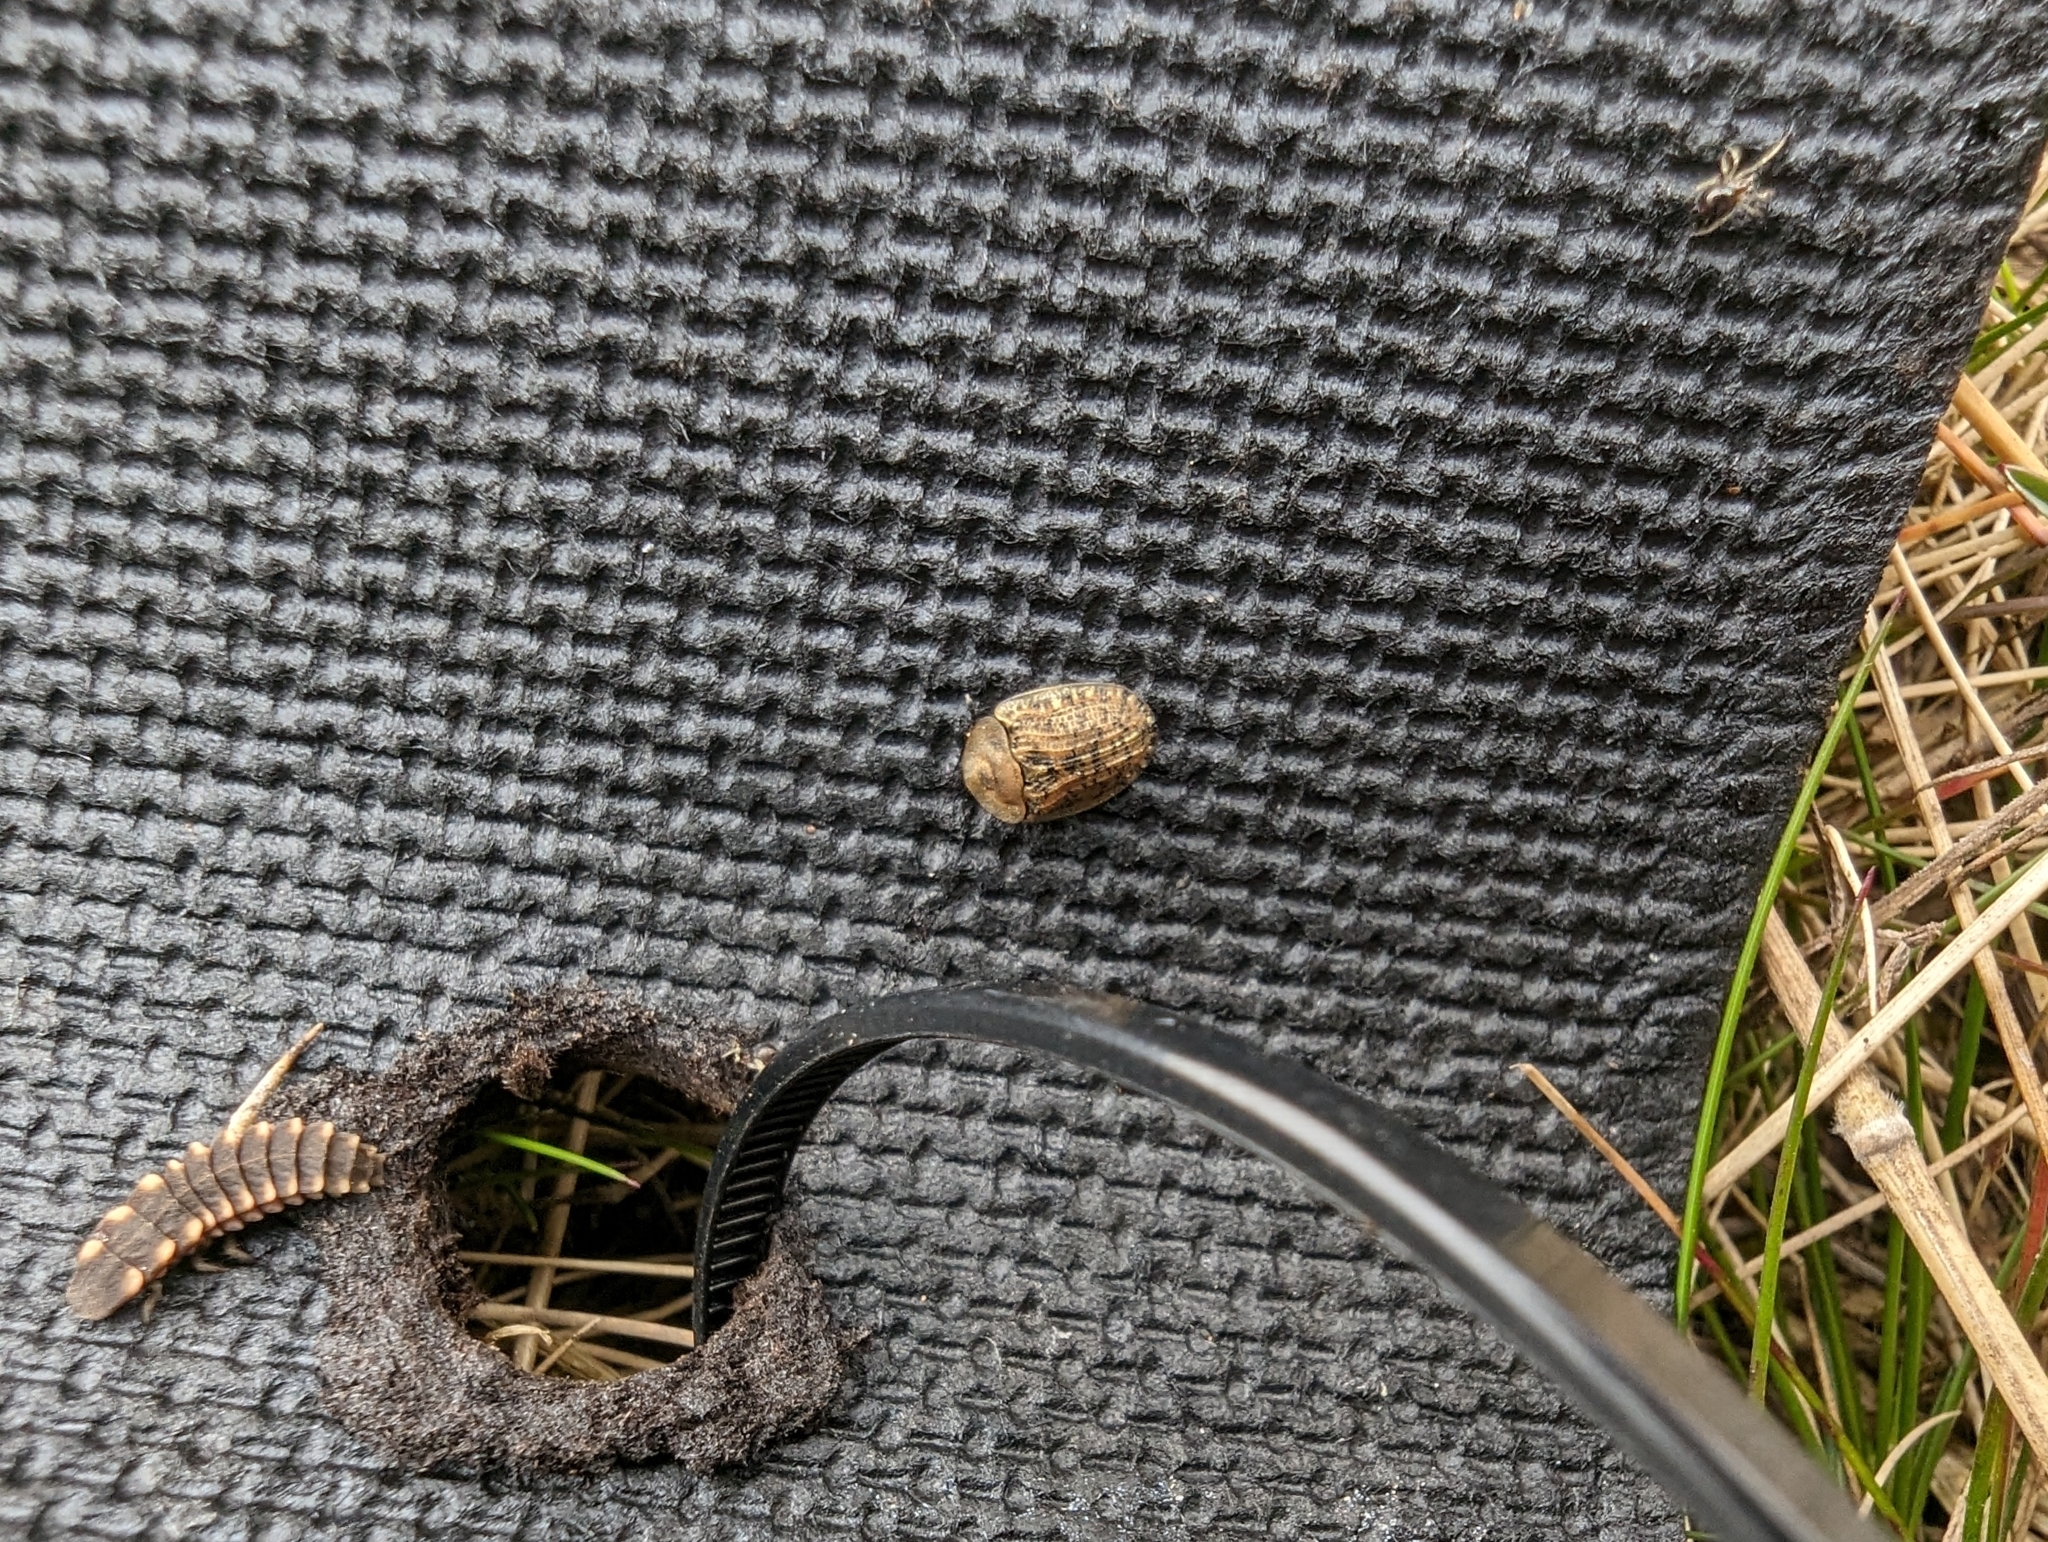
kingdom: Animalia
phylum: Arthropoda
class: Insecta
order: Coleoptera
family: Lampyridae
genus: Lampyris
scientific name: Lampyris noctiluca
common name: Glow-worm
